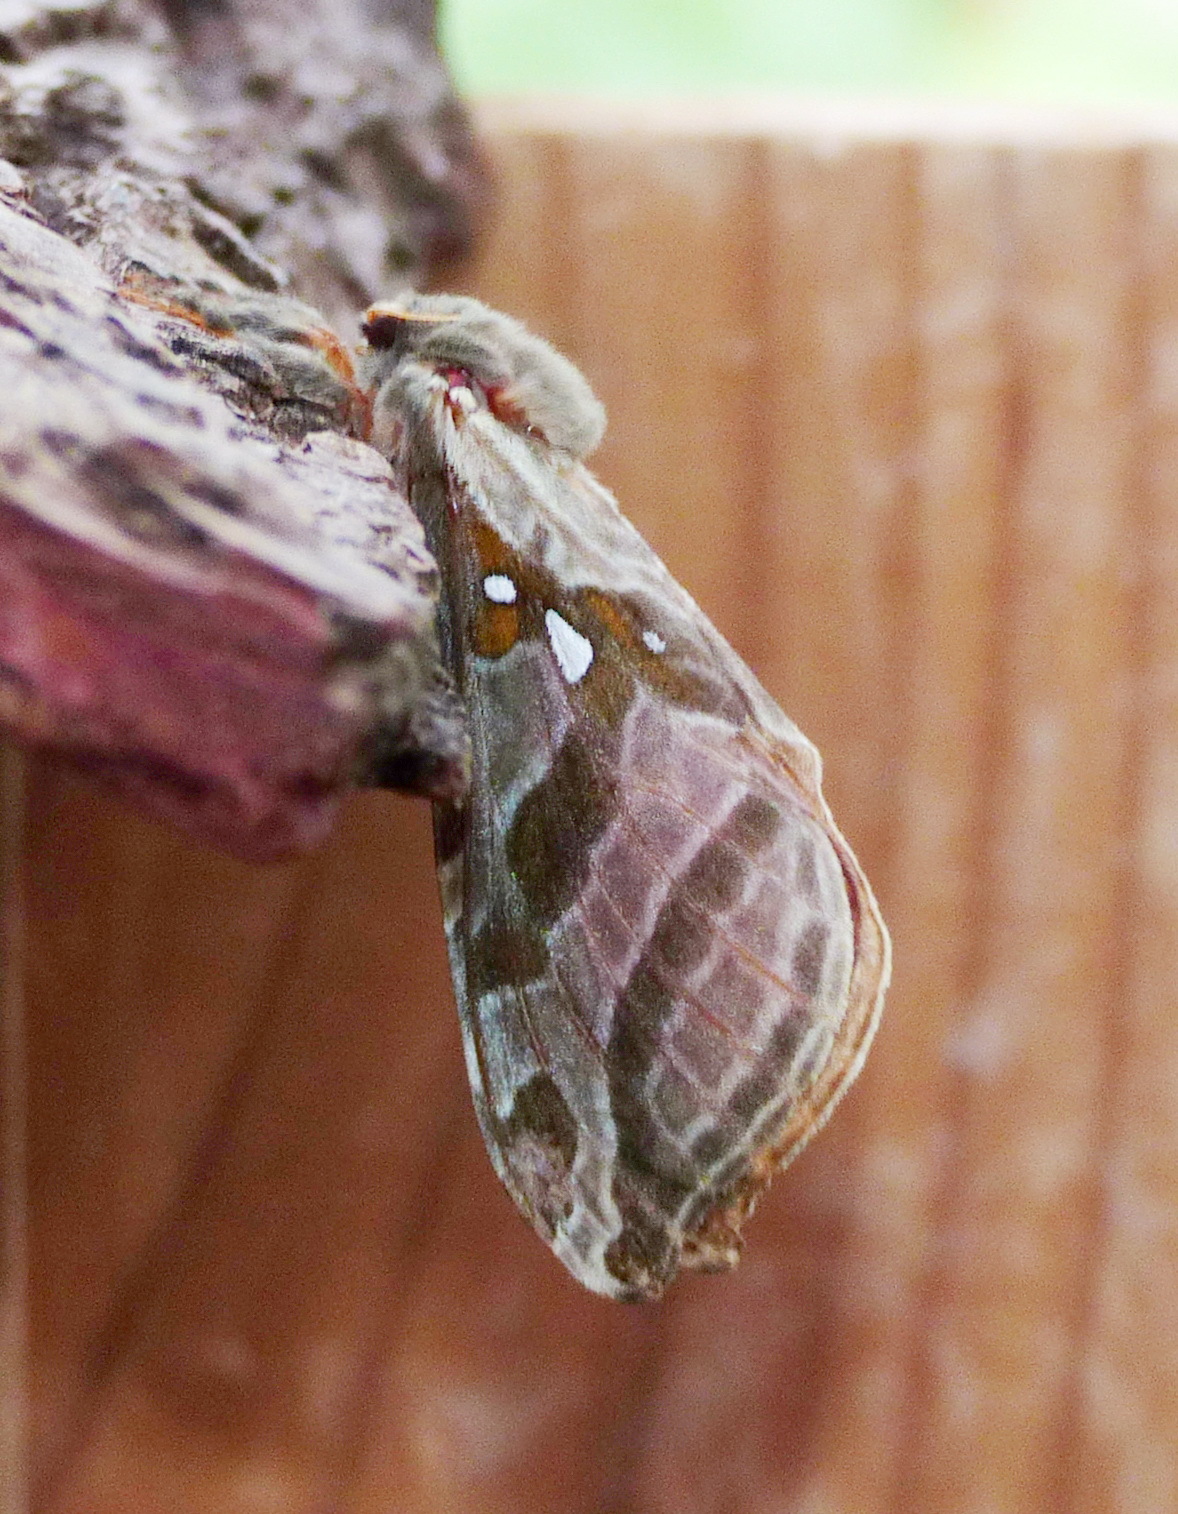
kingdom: Animalia
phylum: Arthropoda
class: Insecta
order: Lepidoptera
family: Hepialidae
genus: Sthenopis
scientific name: Sthenopis argenteomaculatus
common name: Silver-spotted ghost moth
